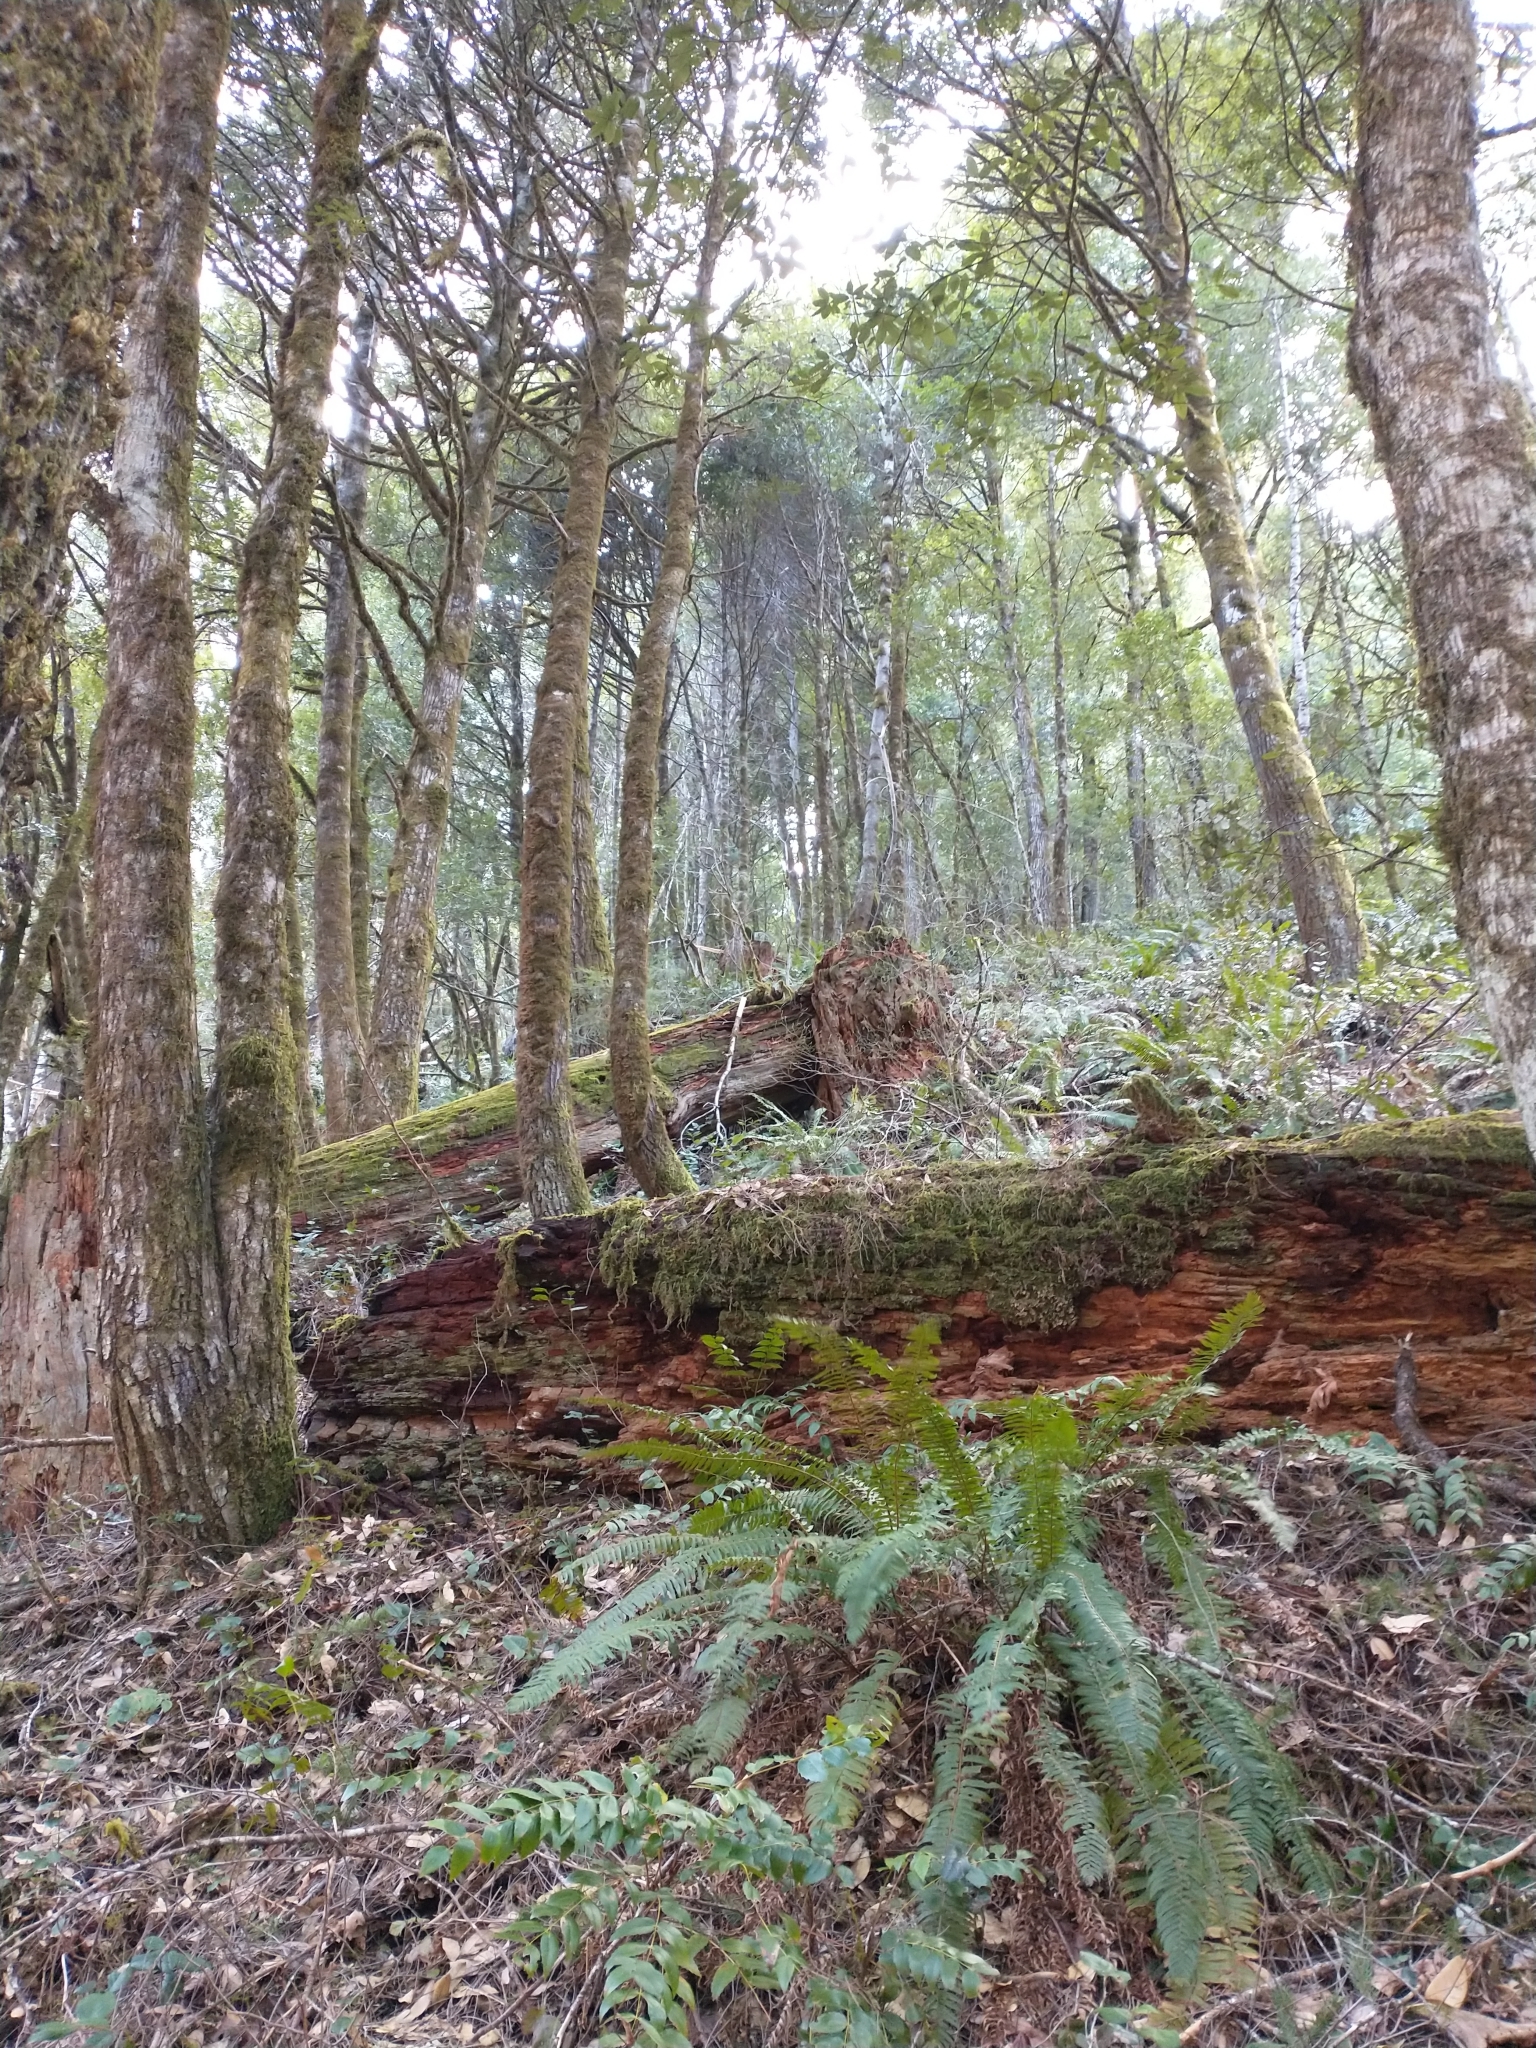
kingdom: Plantae
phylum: Tracheophyta
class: Polypodiopsida
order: Polypodiales
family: Dryopteridaceae
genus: Polystichum
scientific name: Polystichum munitum
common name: Western sword-fern
